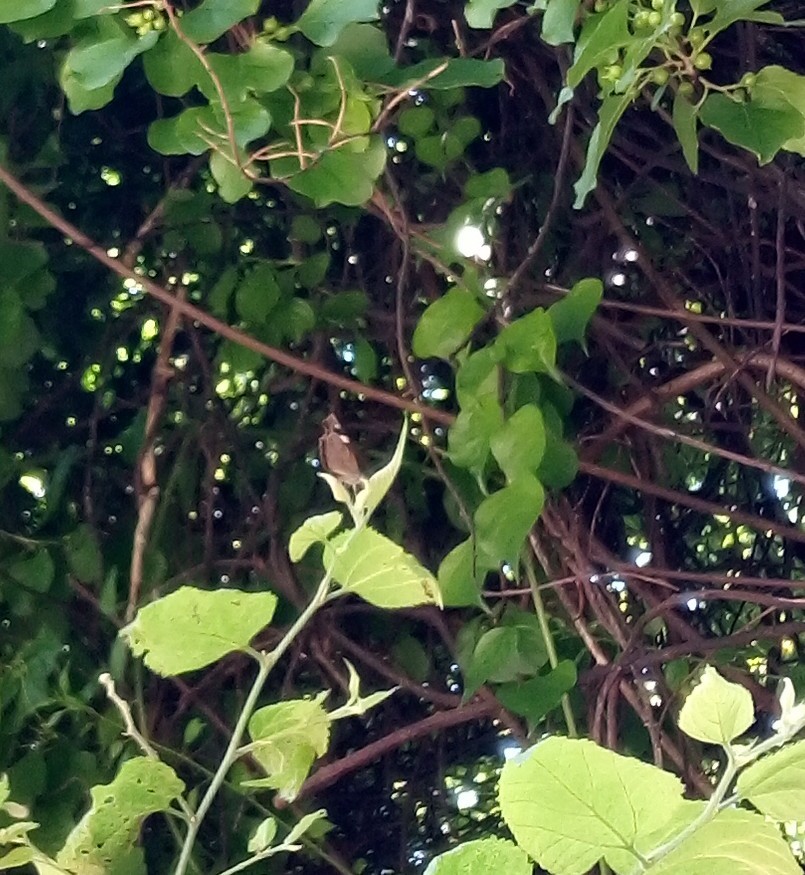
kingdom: Animalia
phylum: Arthropoda
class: Insecta
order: Lepidoptera
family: Nymphalidae
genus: Libytheana
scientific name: Libytheana carinenta
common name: American snout
